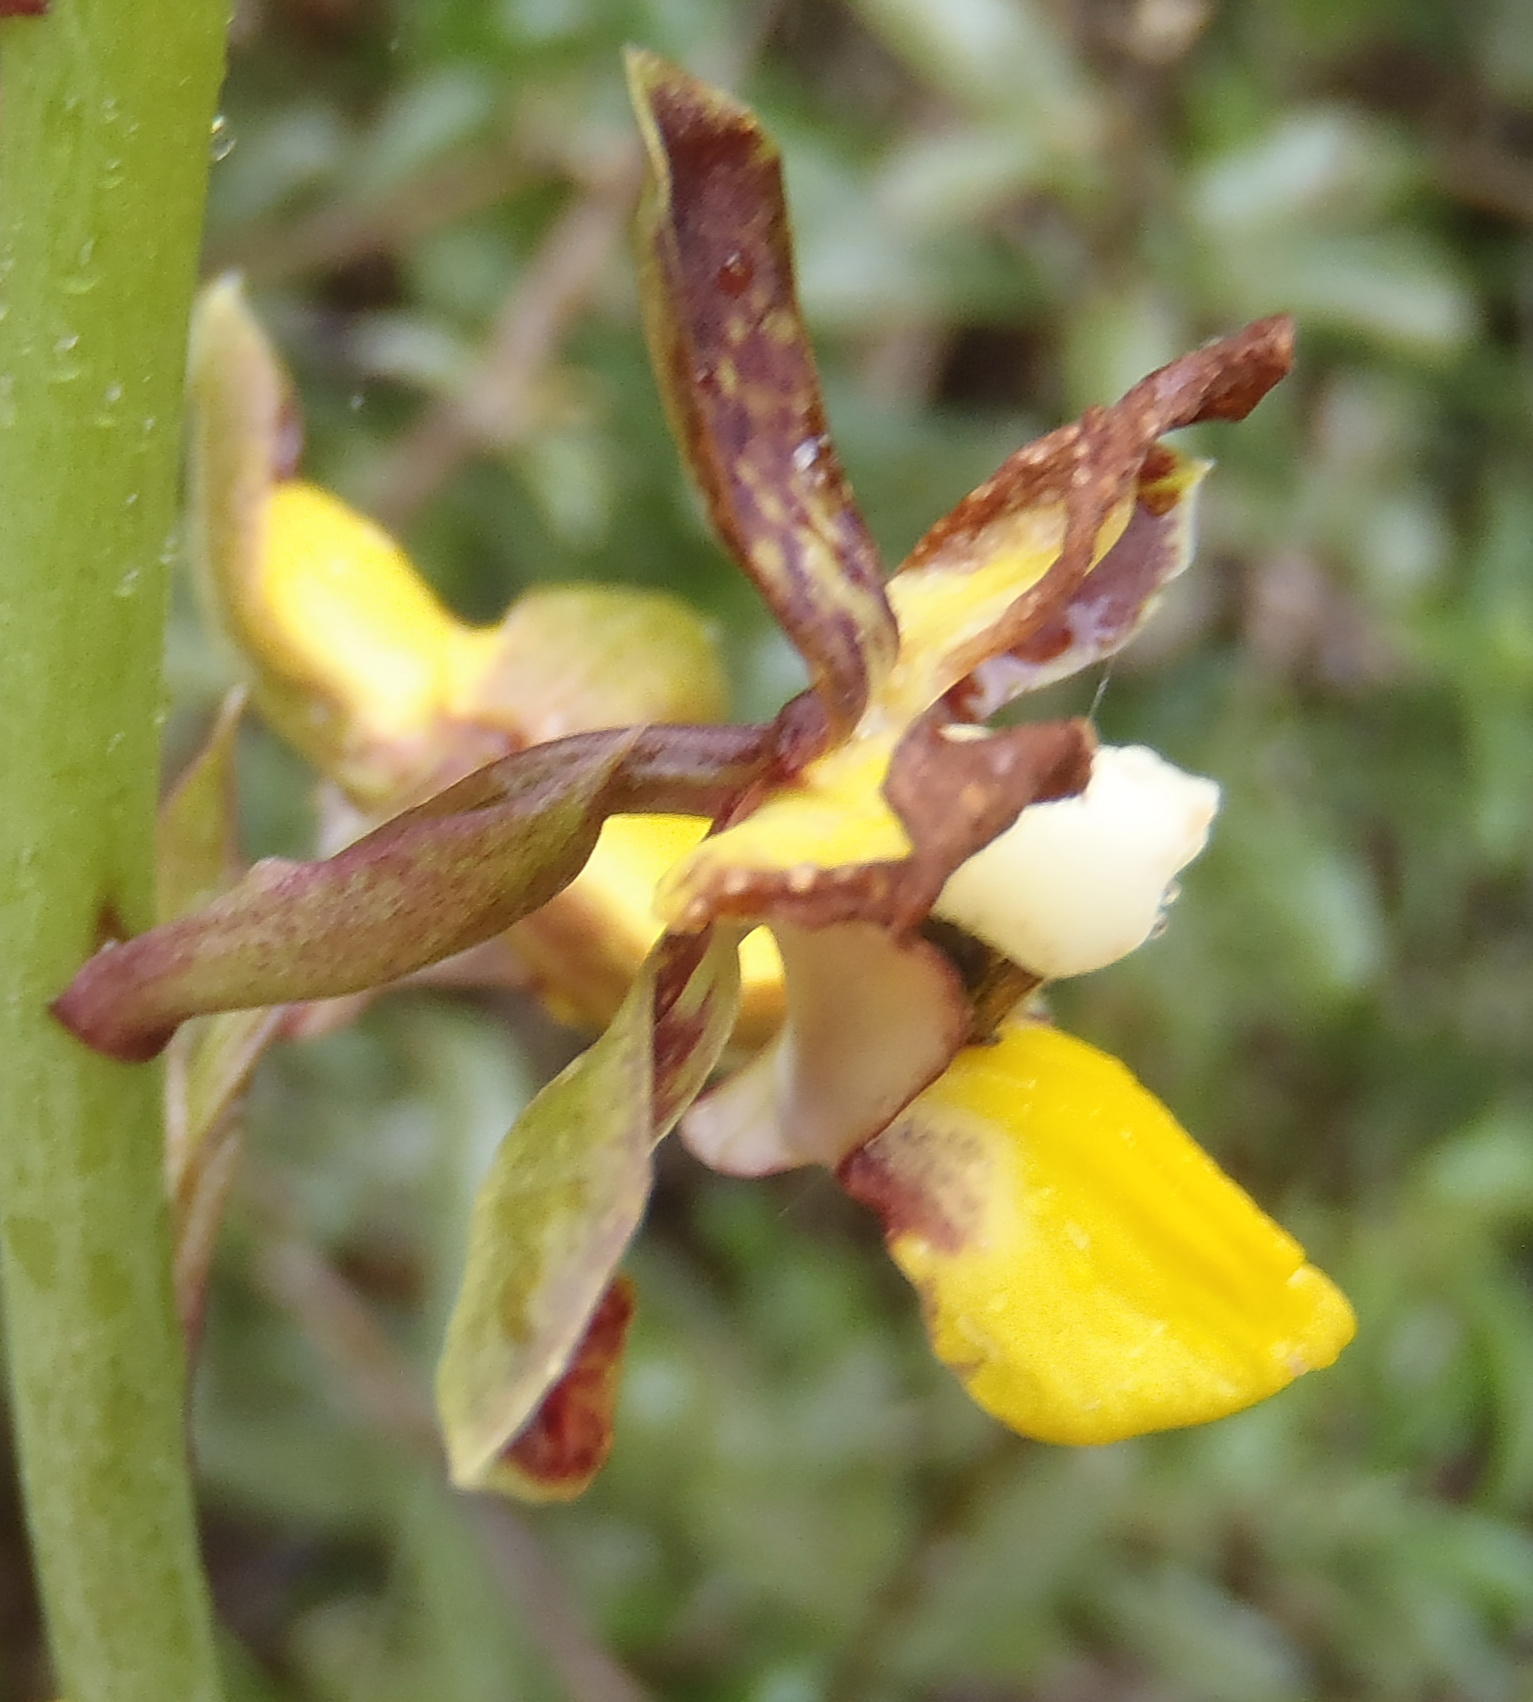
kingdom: Plantae
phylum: Tracheophyta
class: Liliopsida
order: Asparagales
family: Orchidaceae
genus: Eulophia
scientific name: Eulophia parviflora
